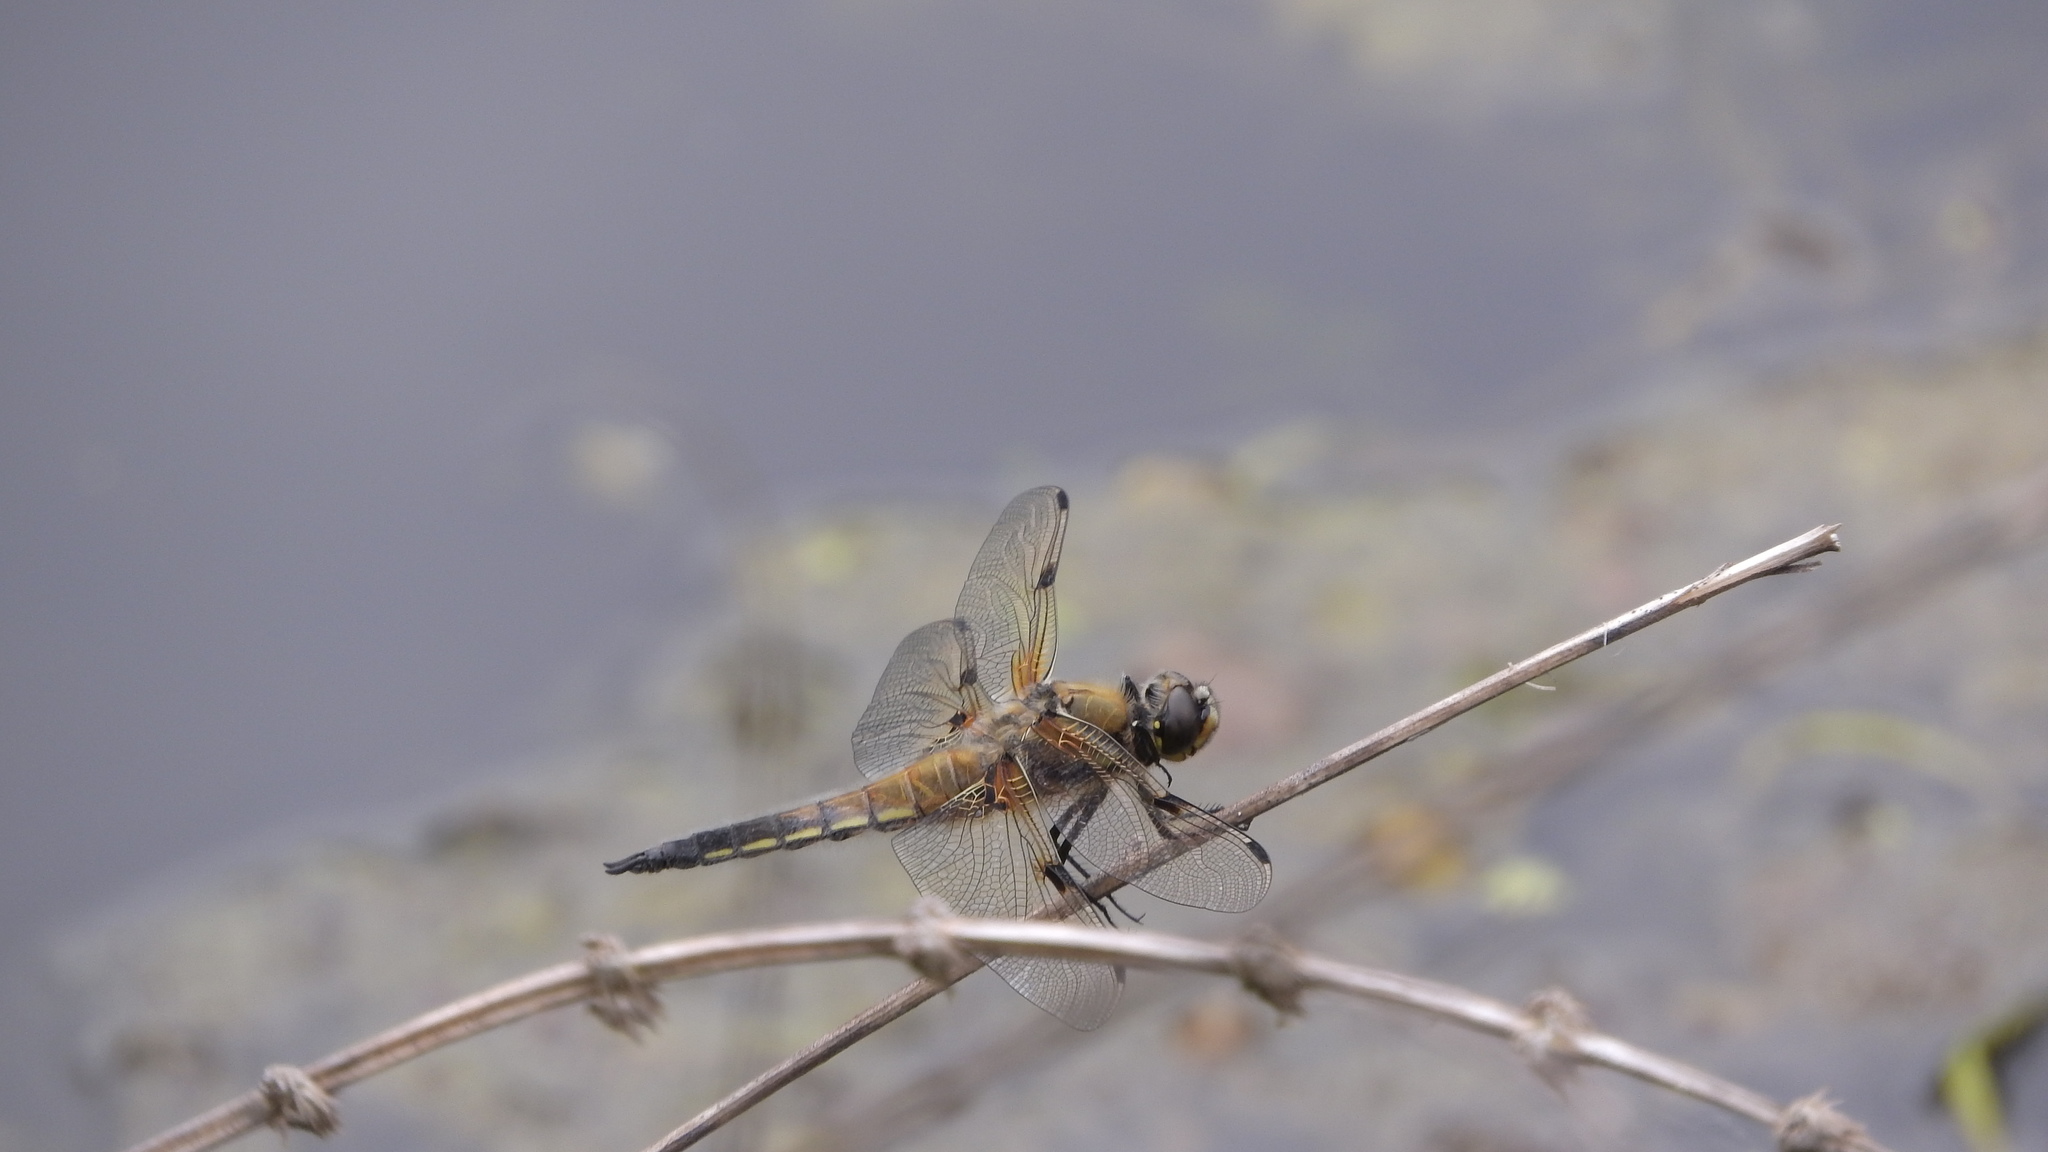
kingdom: Animalia
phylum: Arthropoda
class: Insecta
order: Odonata
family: Libellulidae
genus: Libellula
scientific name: Libellula quadrimaculata
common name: Four-spotted chaser
